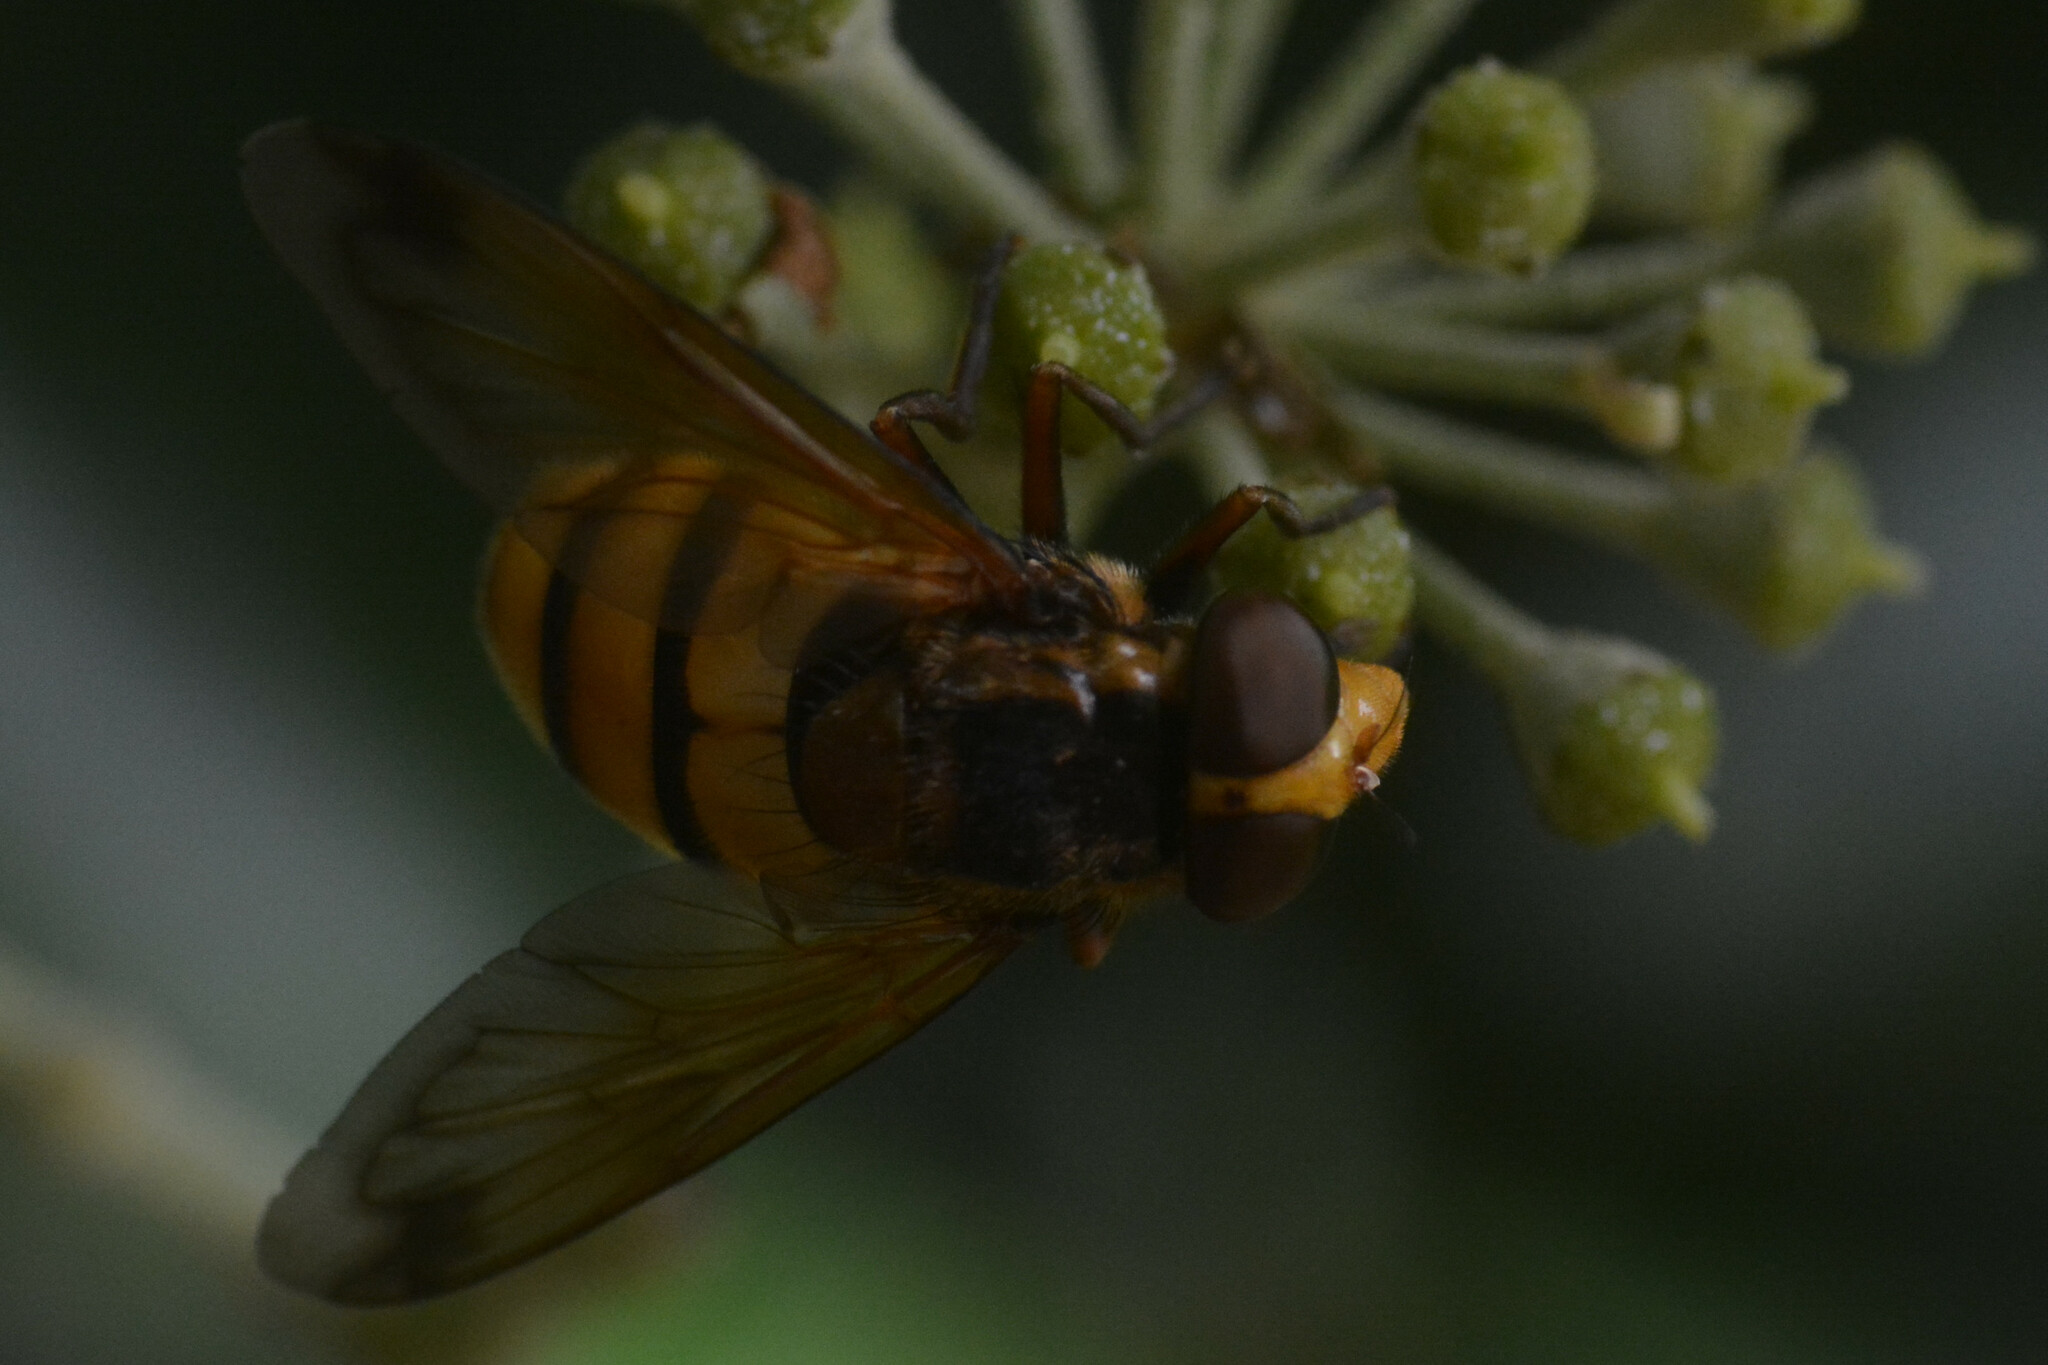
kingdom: Animalia
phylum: Arthropoda
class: Insecta
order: Diptera
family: Syrphidae
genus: Volucella
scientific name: Volucella inanis
